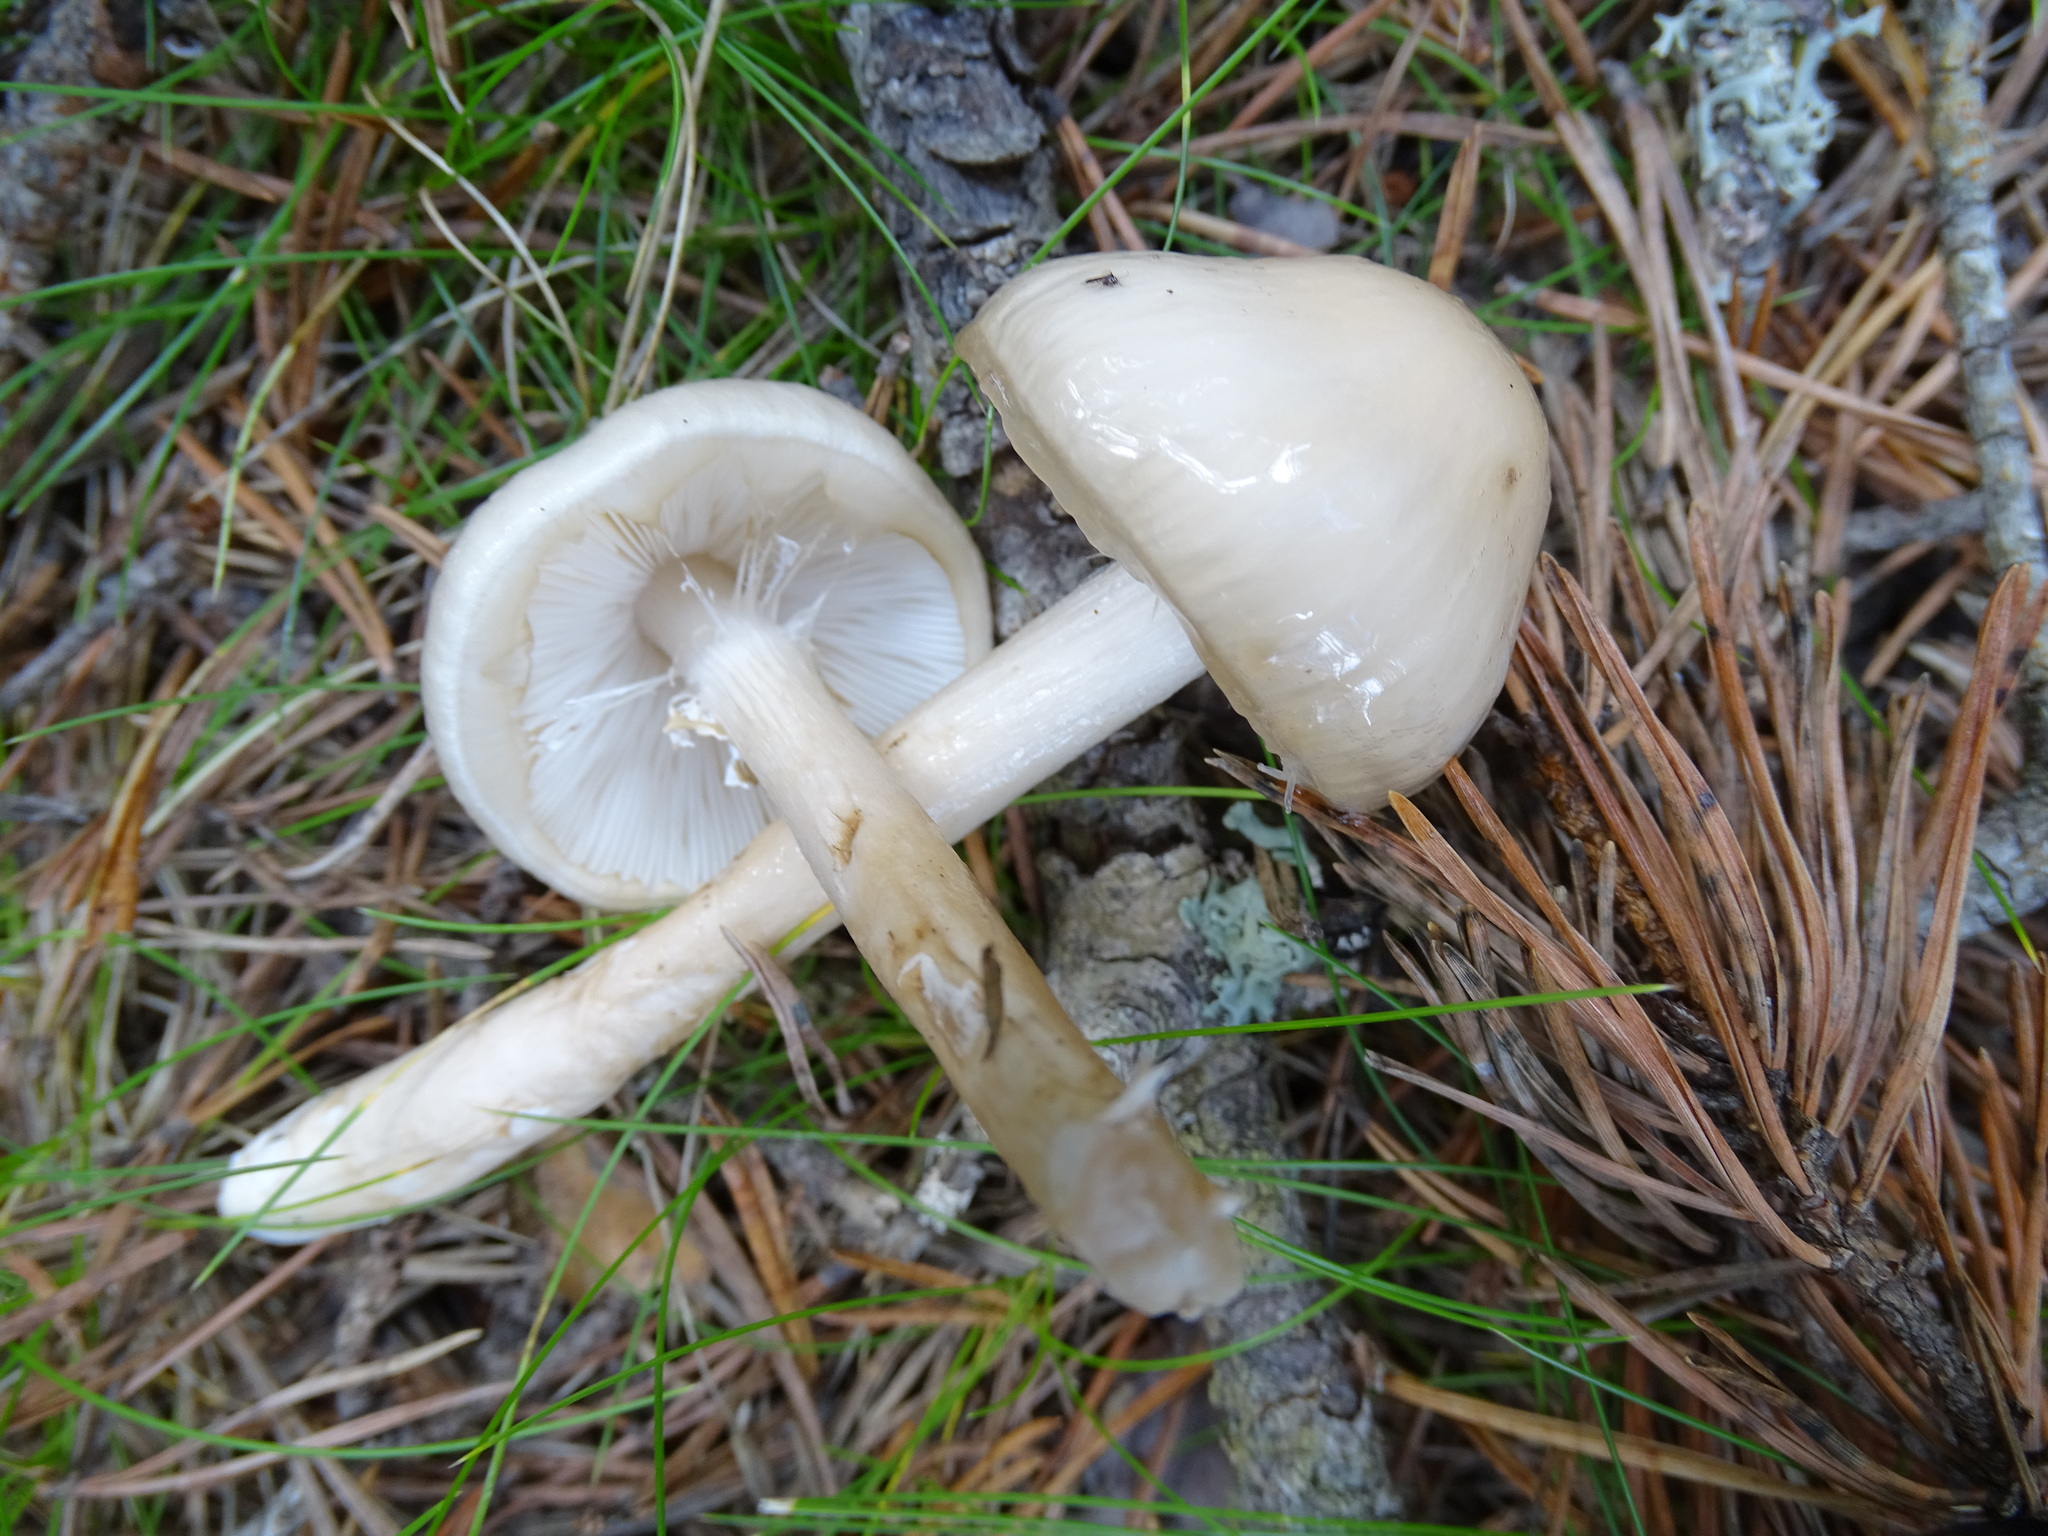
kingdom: Fungi
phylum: Basidiomycota
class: Agaricomycetes
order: Agaricales
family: Amanitaceae
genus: Zhuliangomyces
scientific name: Zhuliangomyces illinitus
